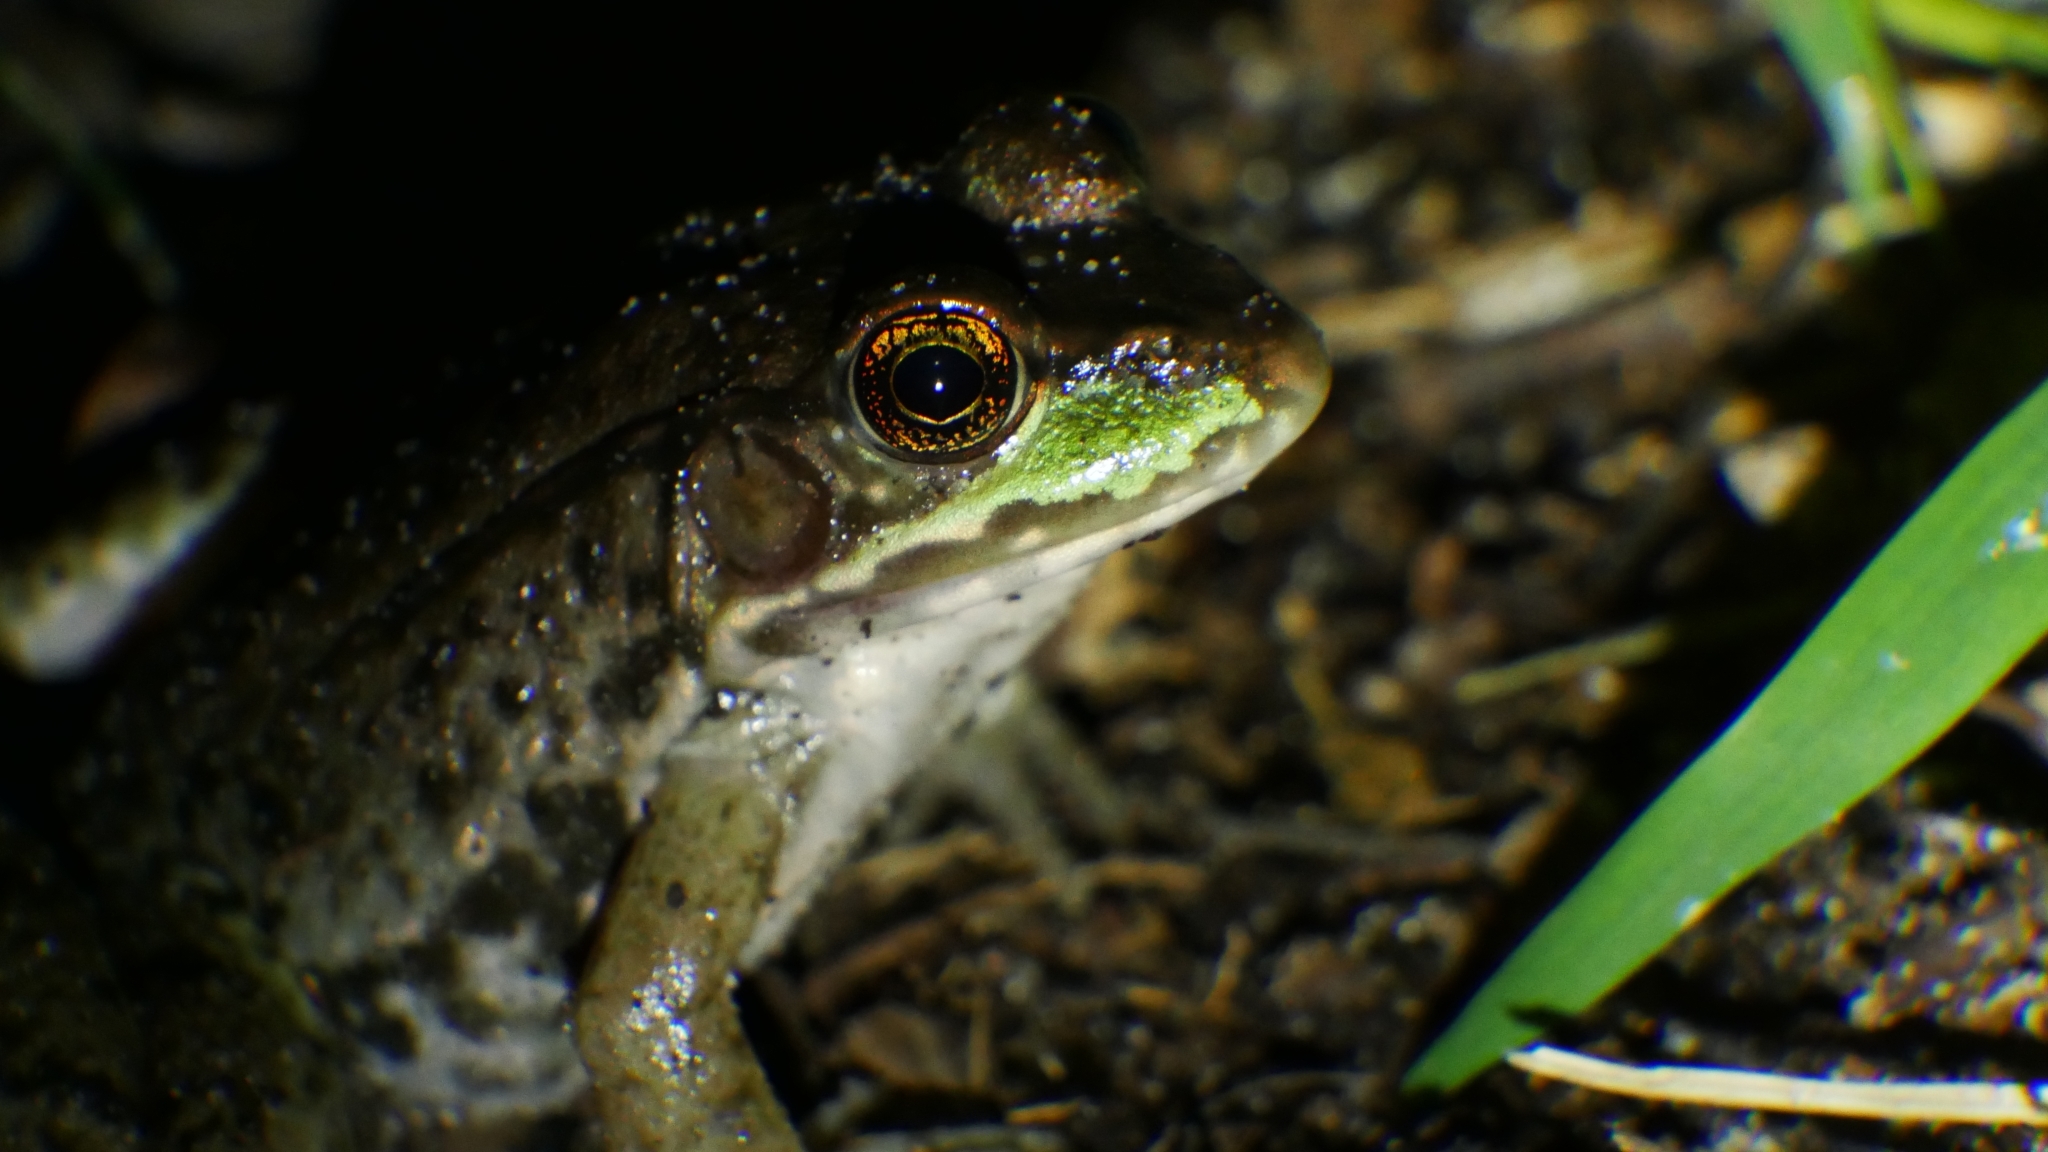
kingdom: Animalia
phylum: Chordata
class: Amphibia
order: Anura
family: Ranidae
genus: Lithobates
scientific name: Lithobates clamitans
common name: Green frog
